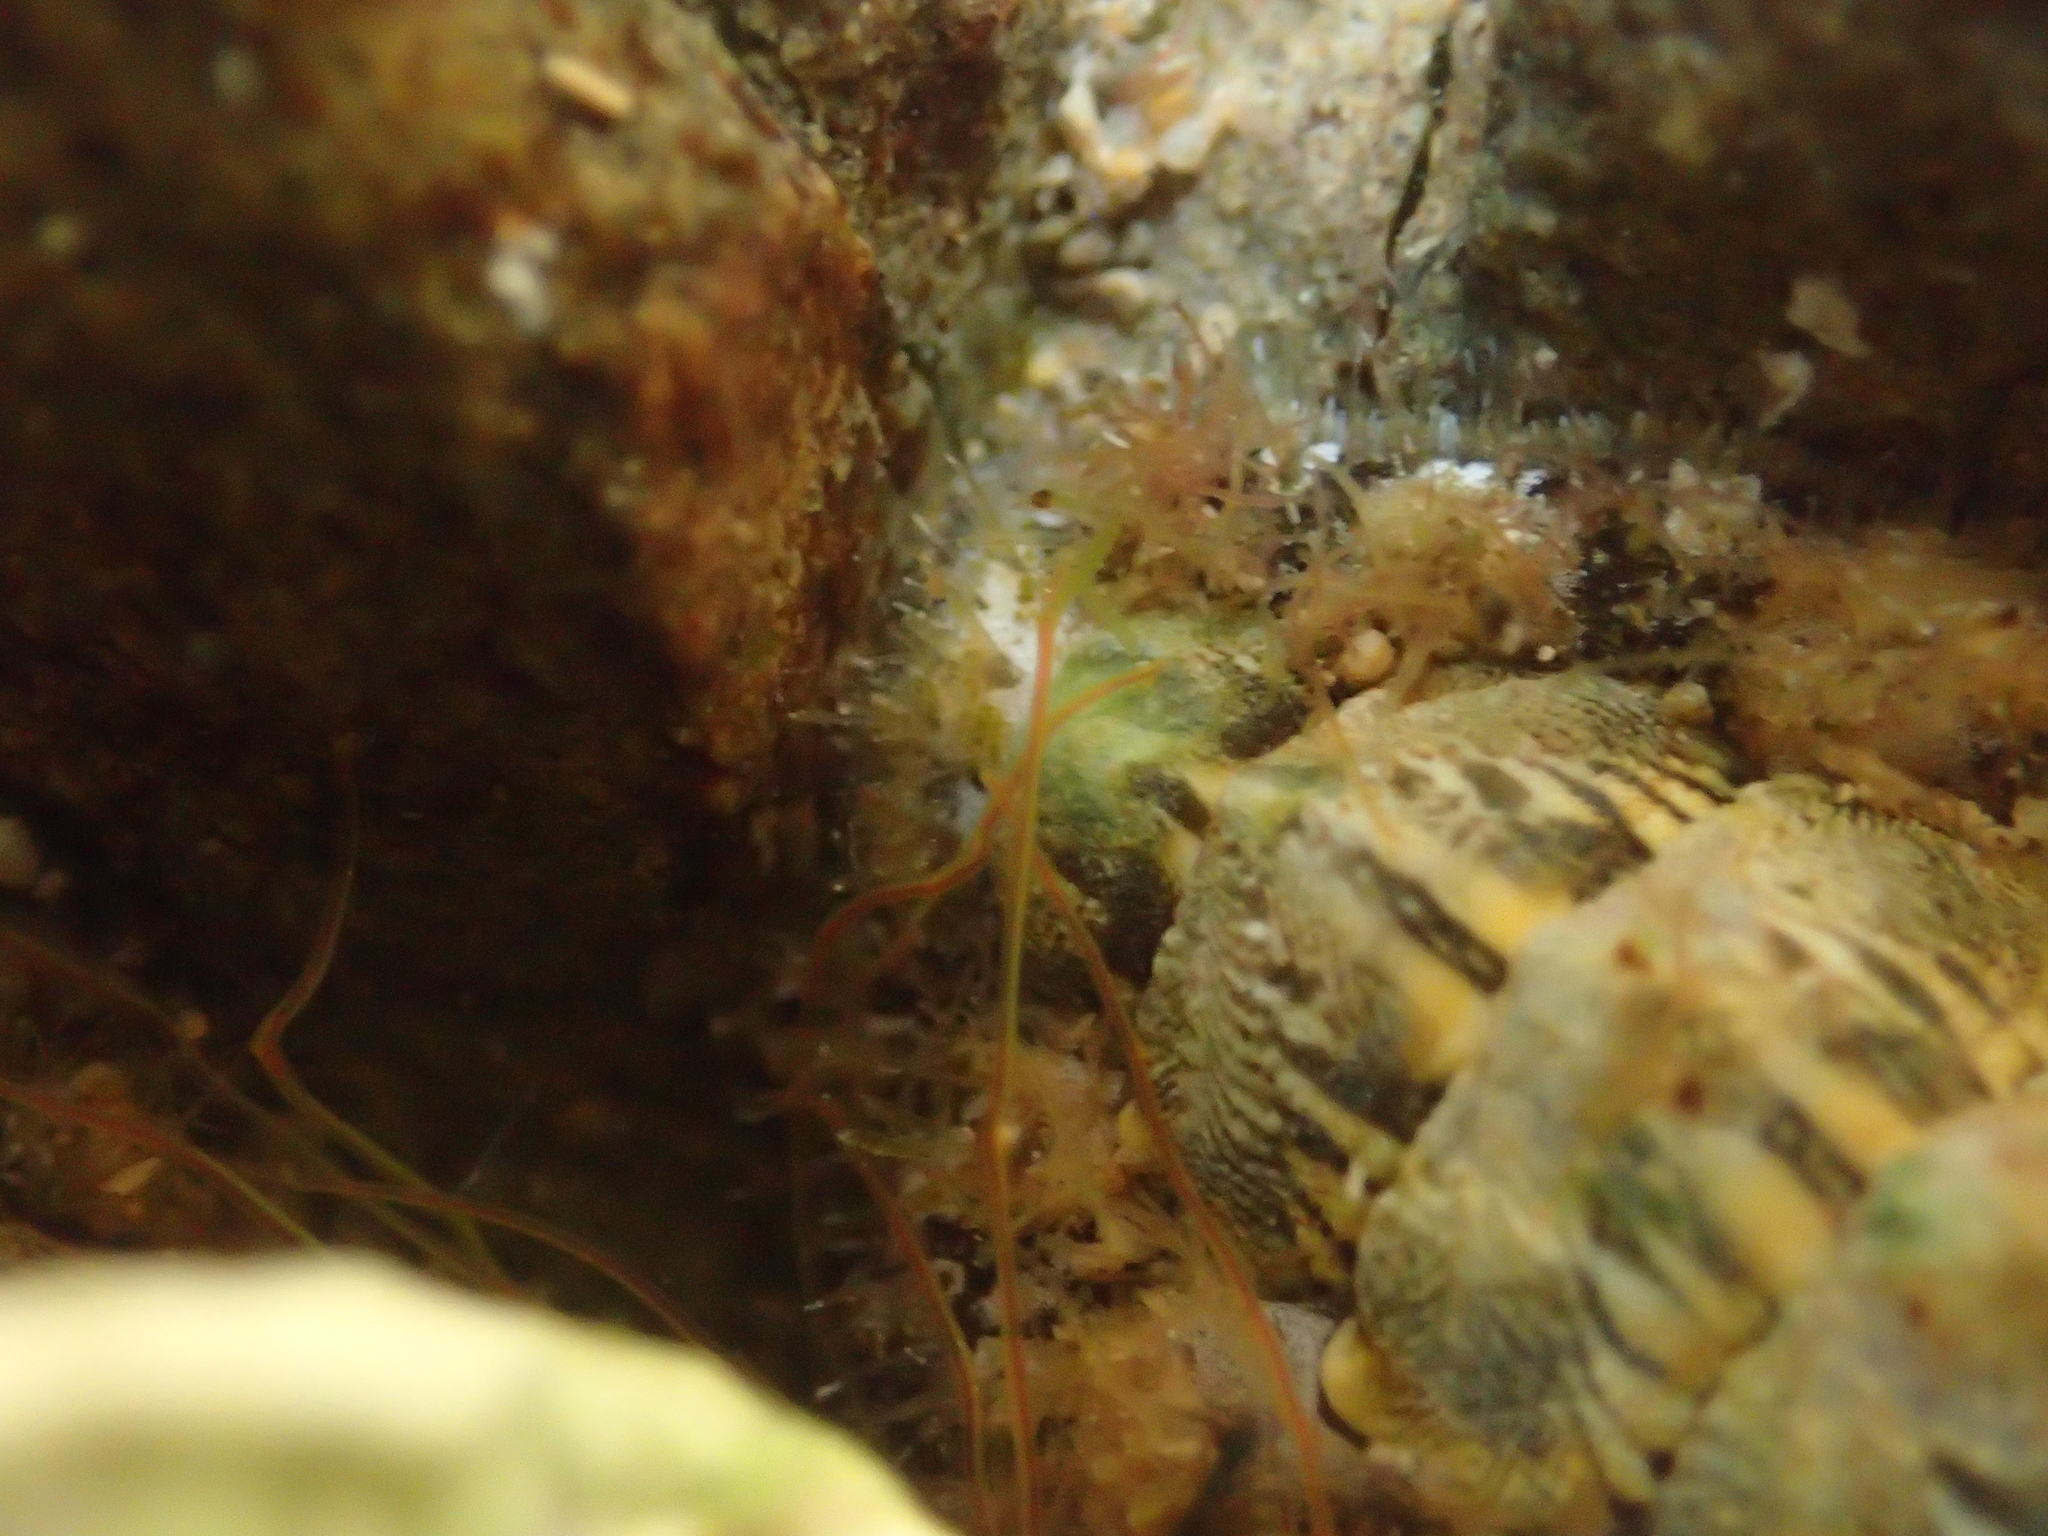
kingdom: Animalia
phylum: Mollusca
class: Polyplacophora
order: Chitonida
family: Mopaliidae
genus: Plaxiphora
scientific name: Plaxiphora caelata
